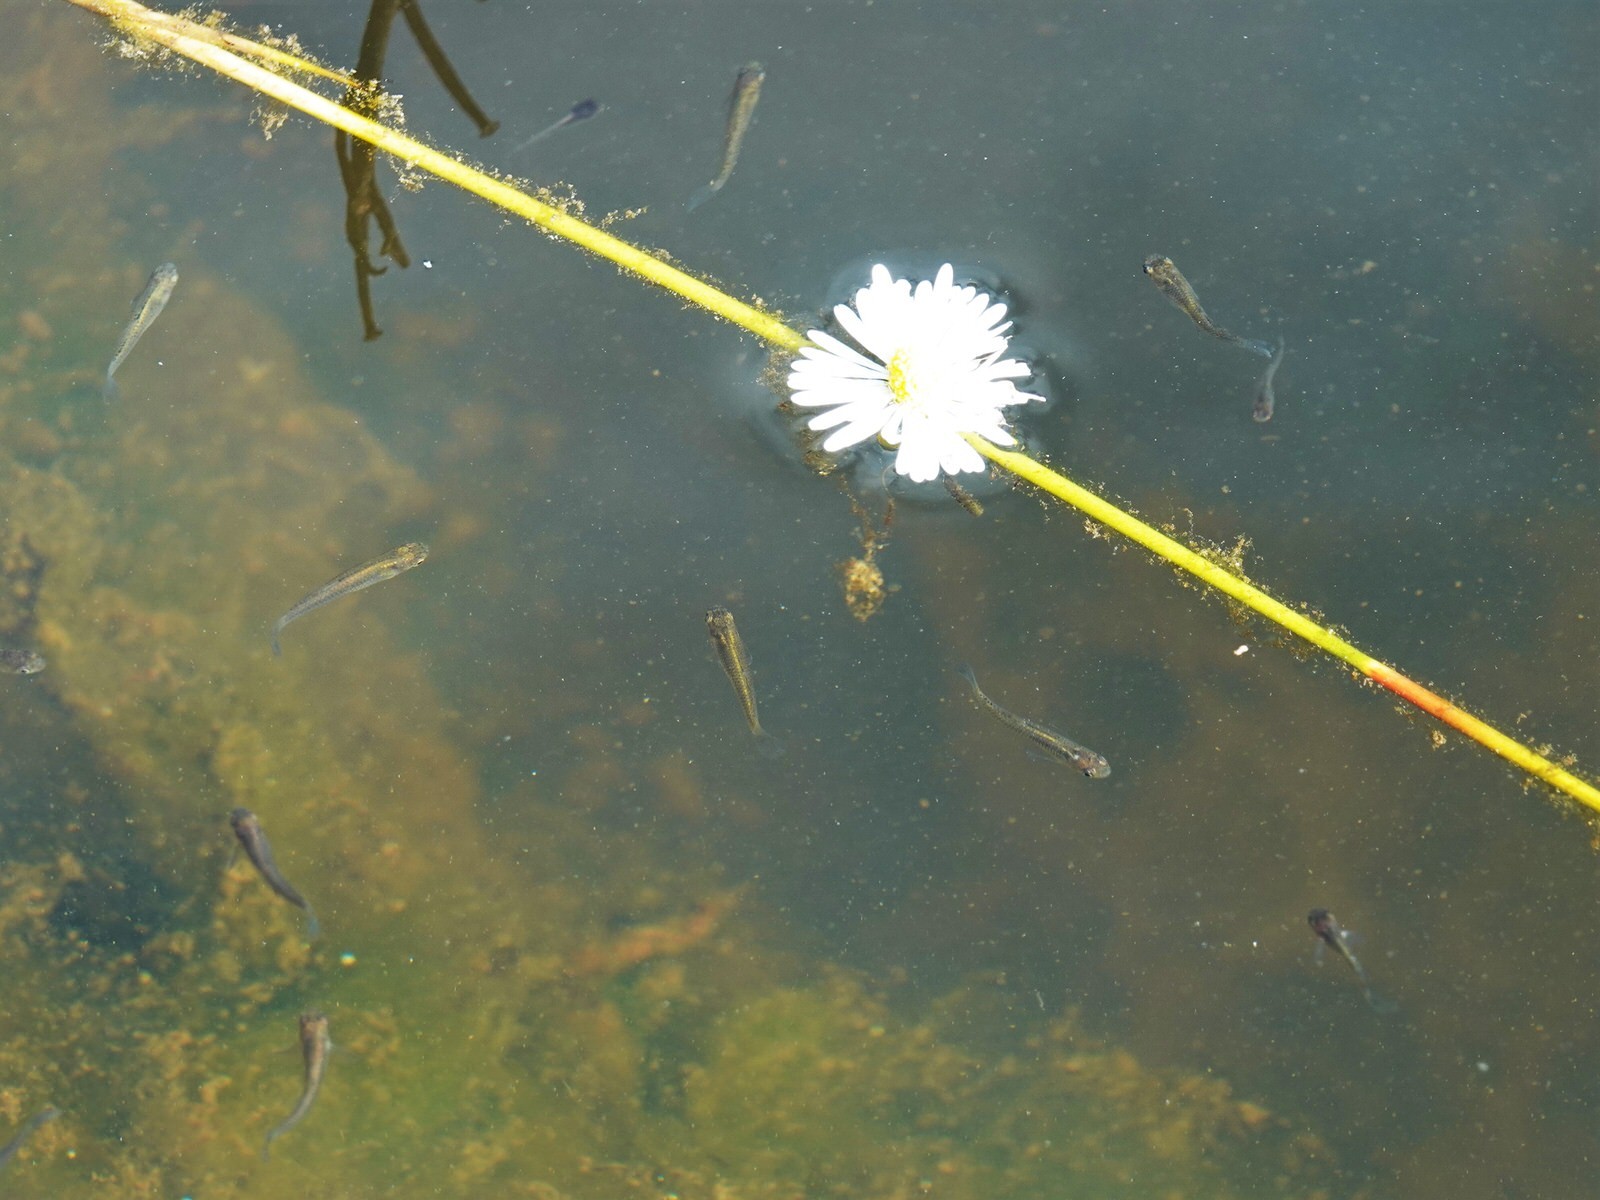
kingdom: Animalia
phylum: Chordata
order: Cyprinodontiformes
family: Poeciliidae
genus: Gambusia
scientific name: Gambusia affinis
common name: Mosquitofish
